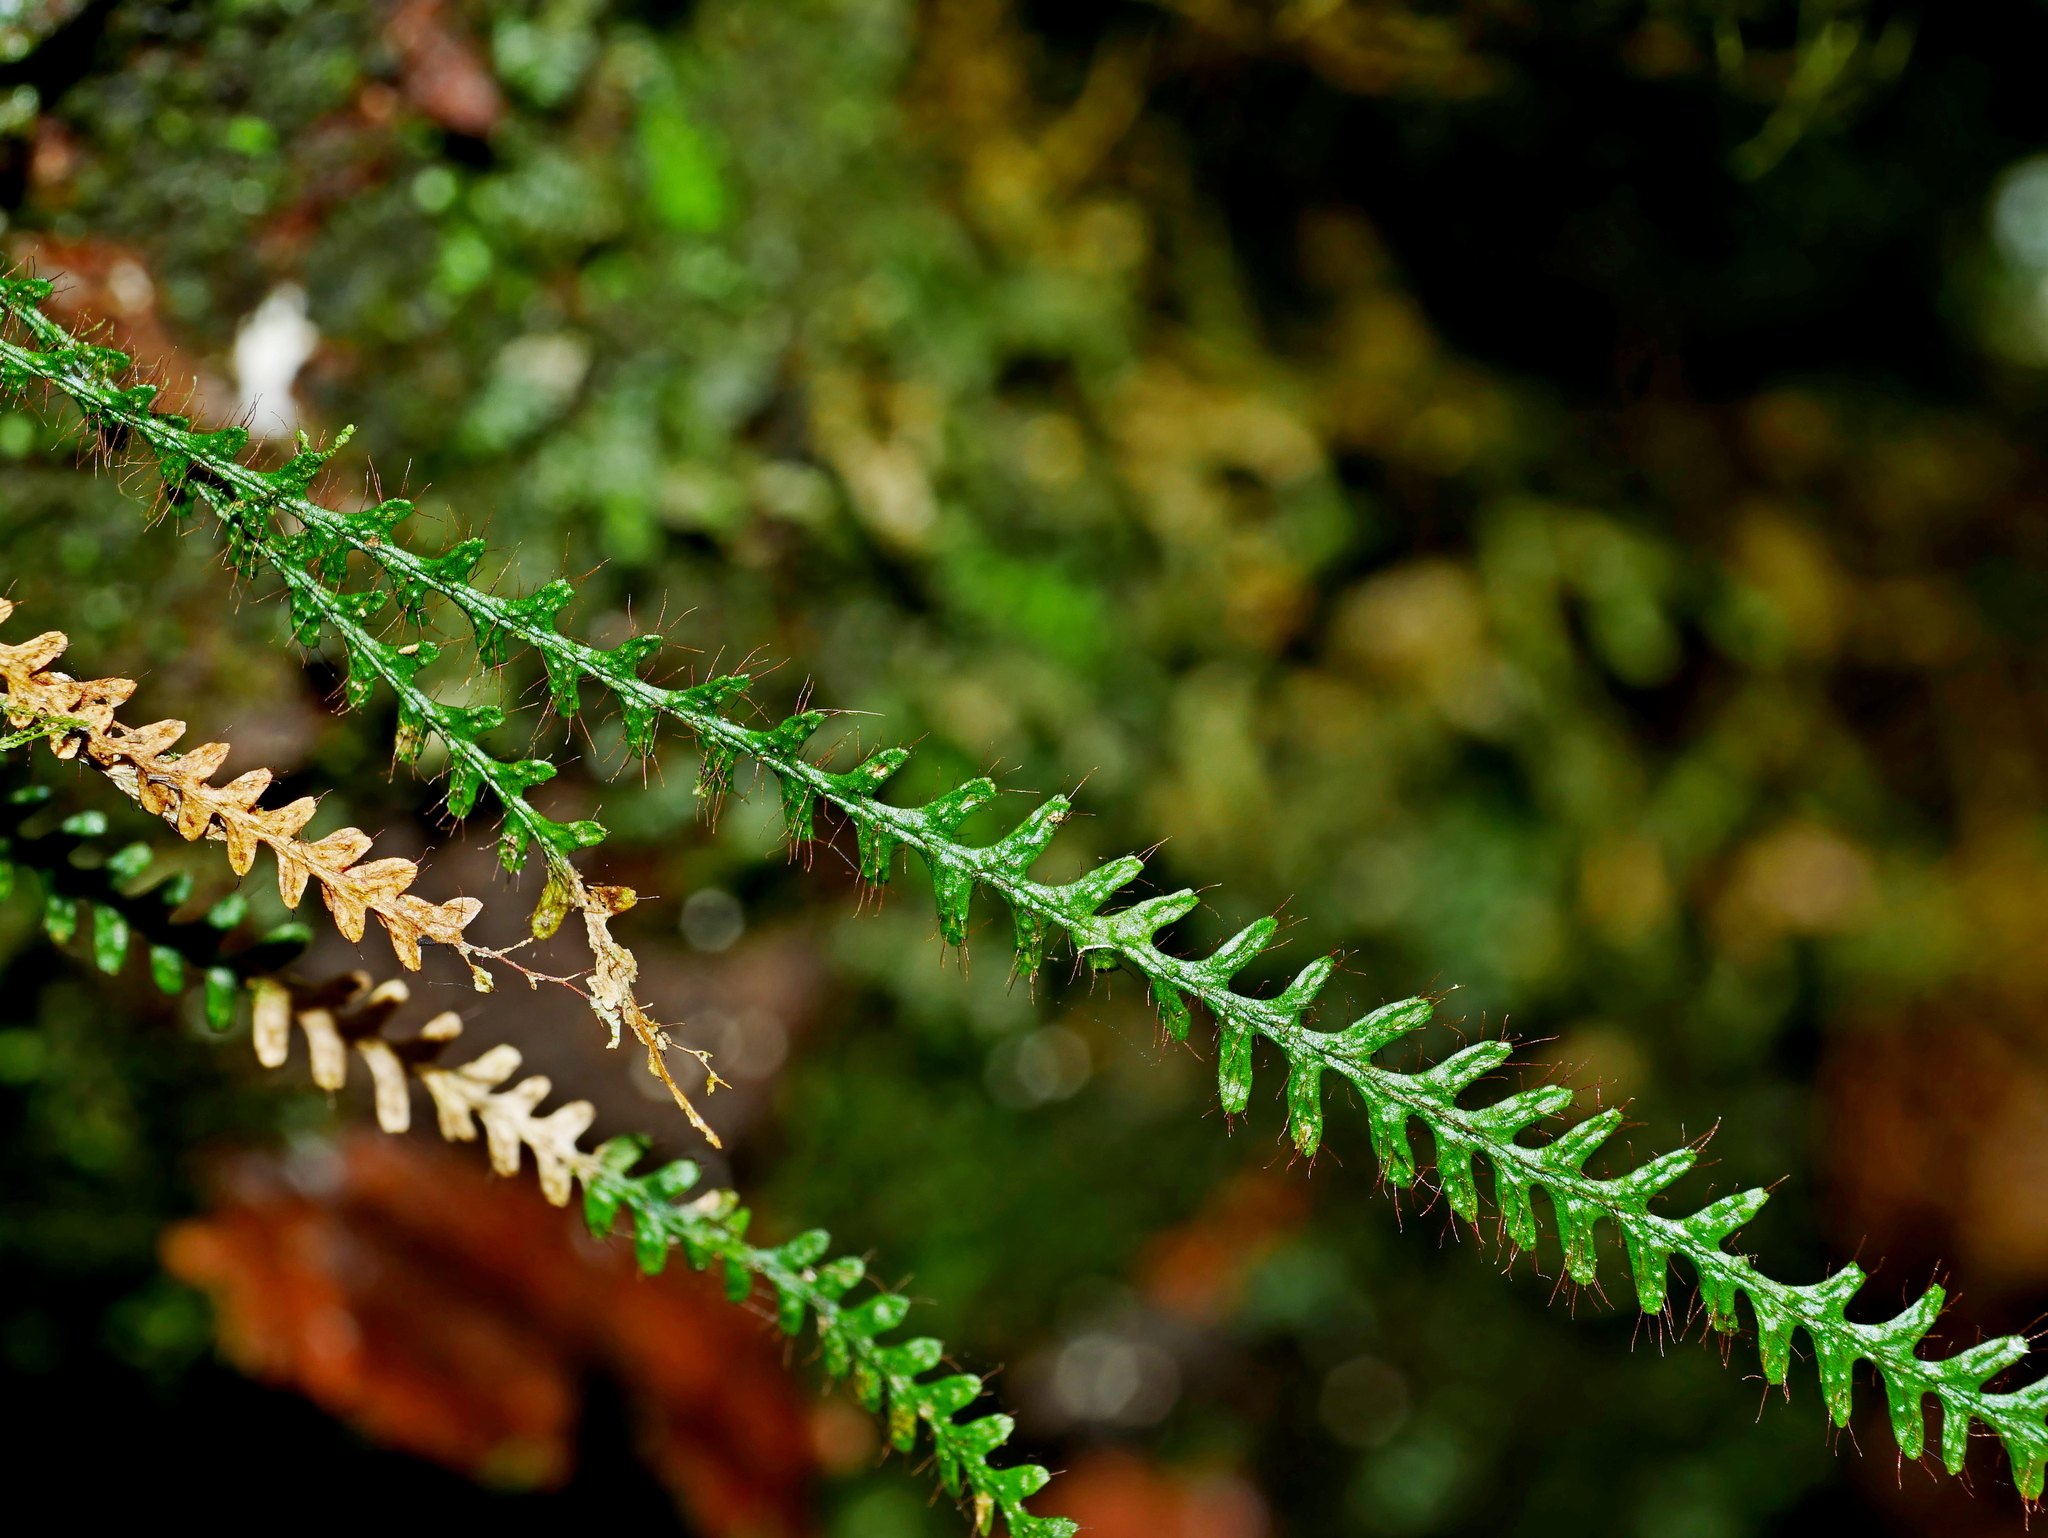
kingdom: Plantae
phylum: Tracheophyta
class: Polypodiopsida
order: Polypodiales
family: Polypodiaceae
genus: Micropolypodium
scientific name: Micropolypodium okuboi
